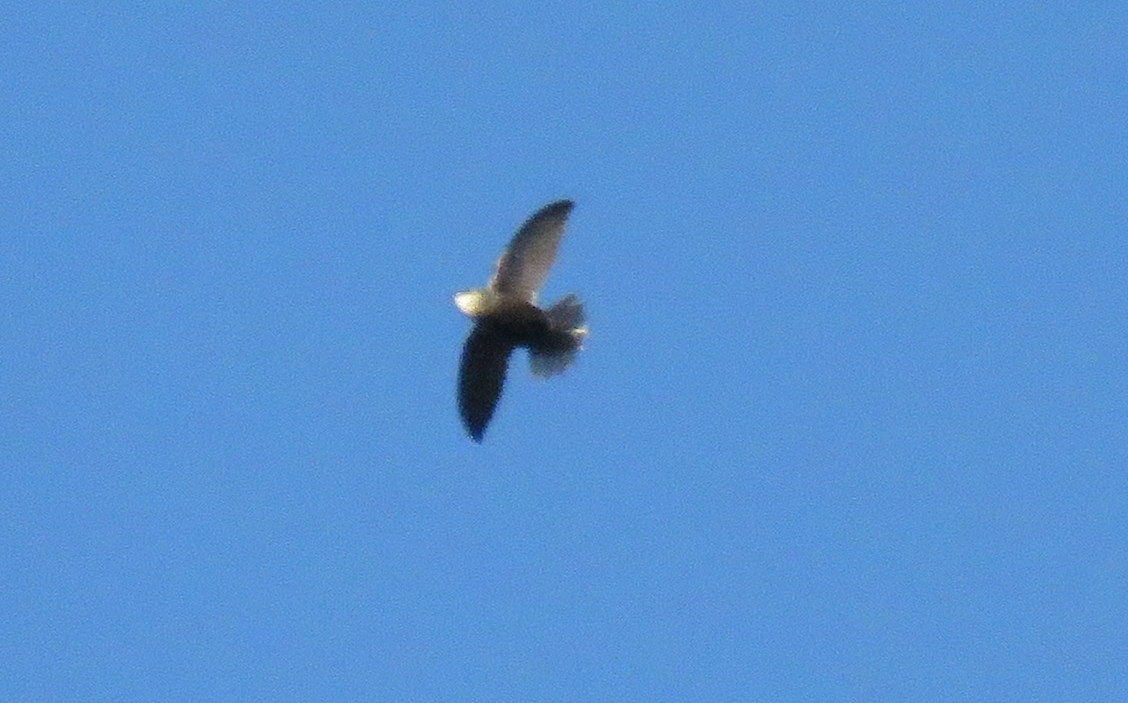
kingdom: Animalia
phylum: Chordata
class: Aves
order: Apodiformes
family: Apodidae
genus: Chaetura
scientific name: Chaetura meridionalis
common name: Sick's swift
